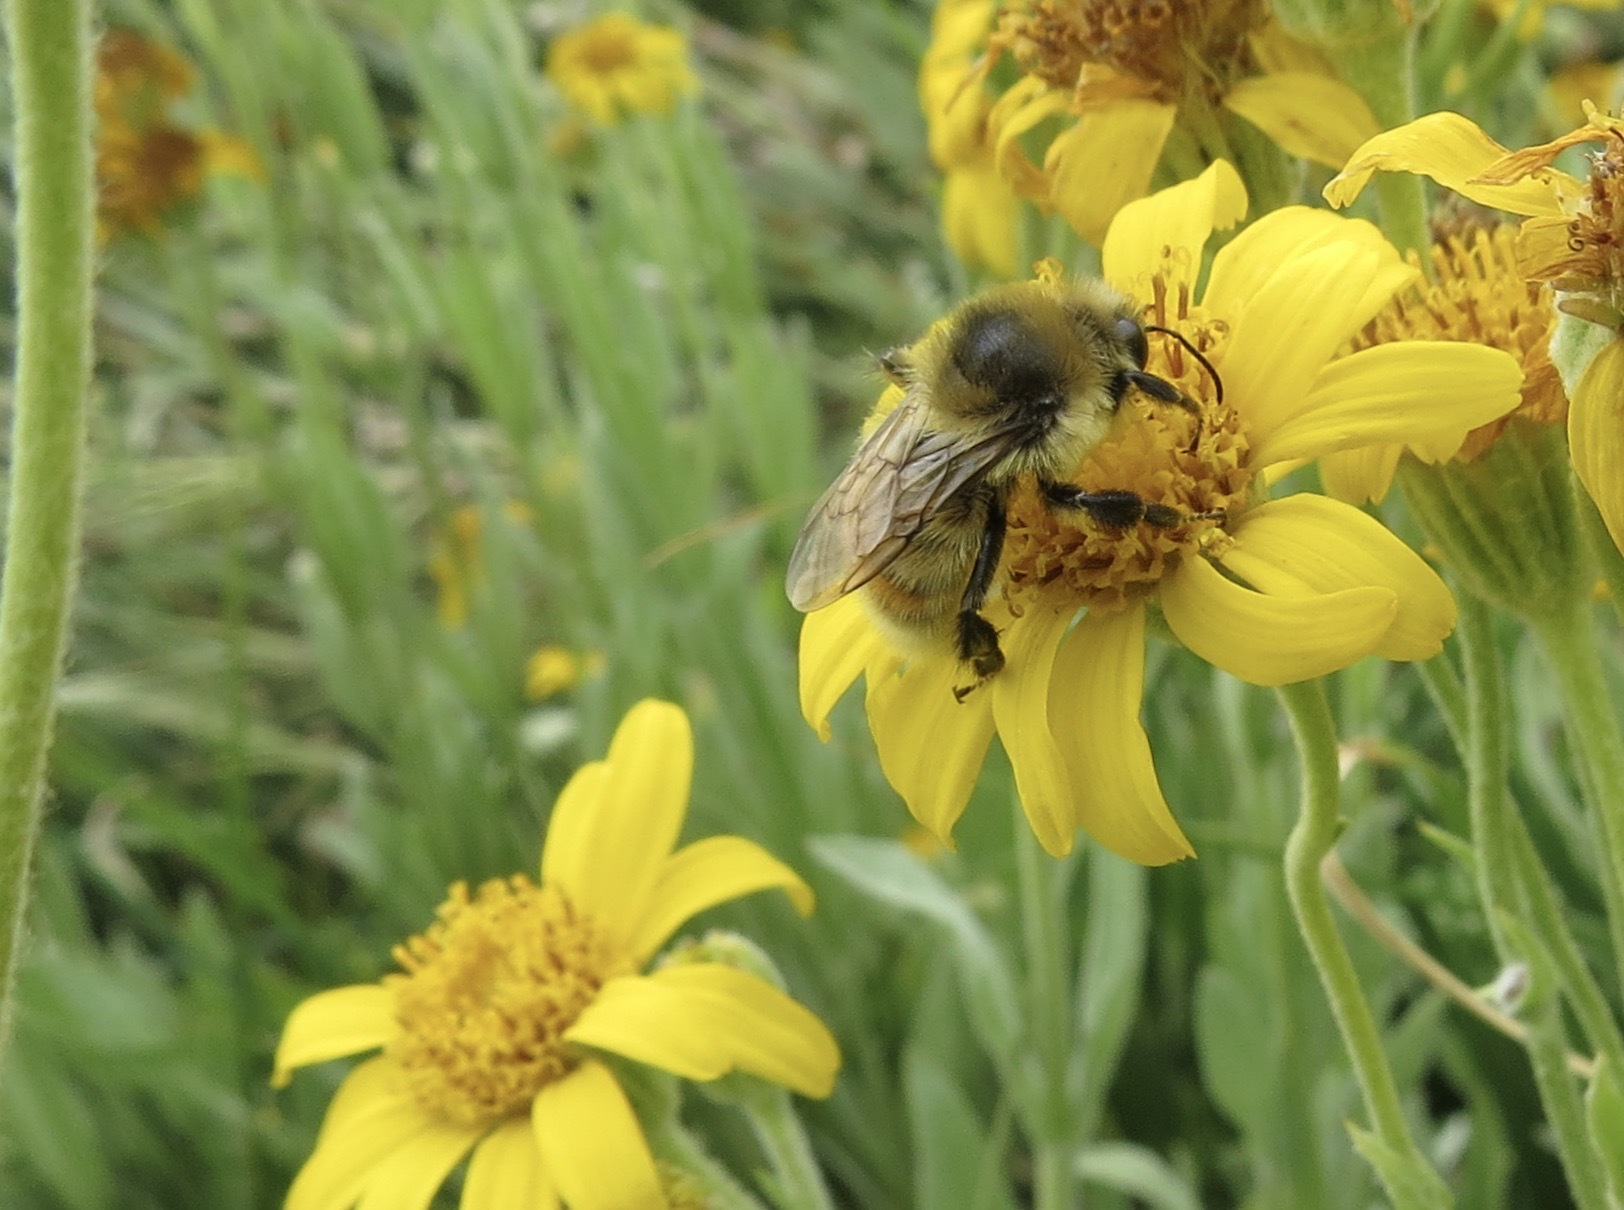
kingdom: Animalia
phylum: Arthropoda
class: Insecta
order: Hymenoptera
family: Apidae
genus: Bombus
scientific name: Bombus rufocinctus
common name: Red-belted bumble bee
